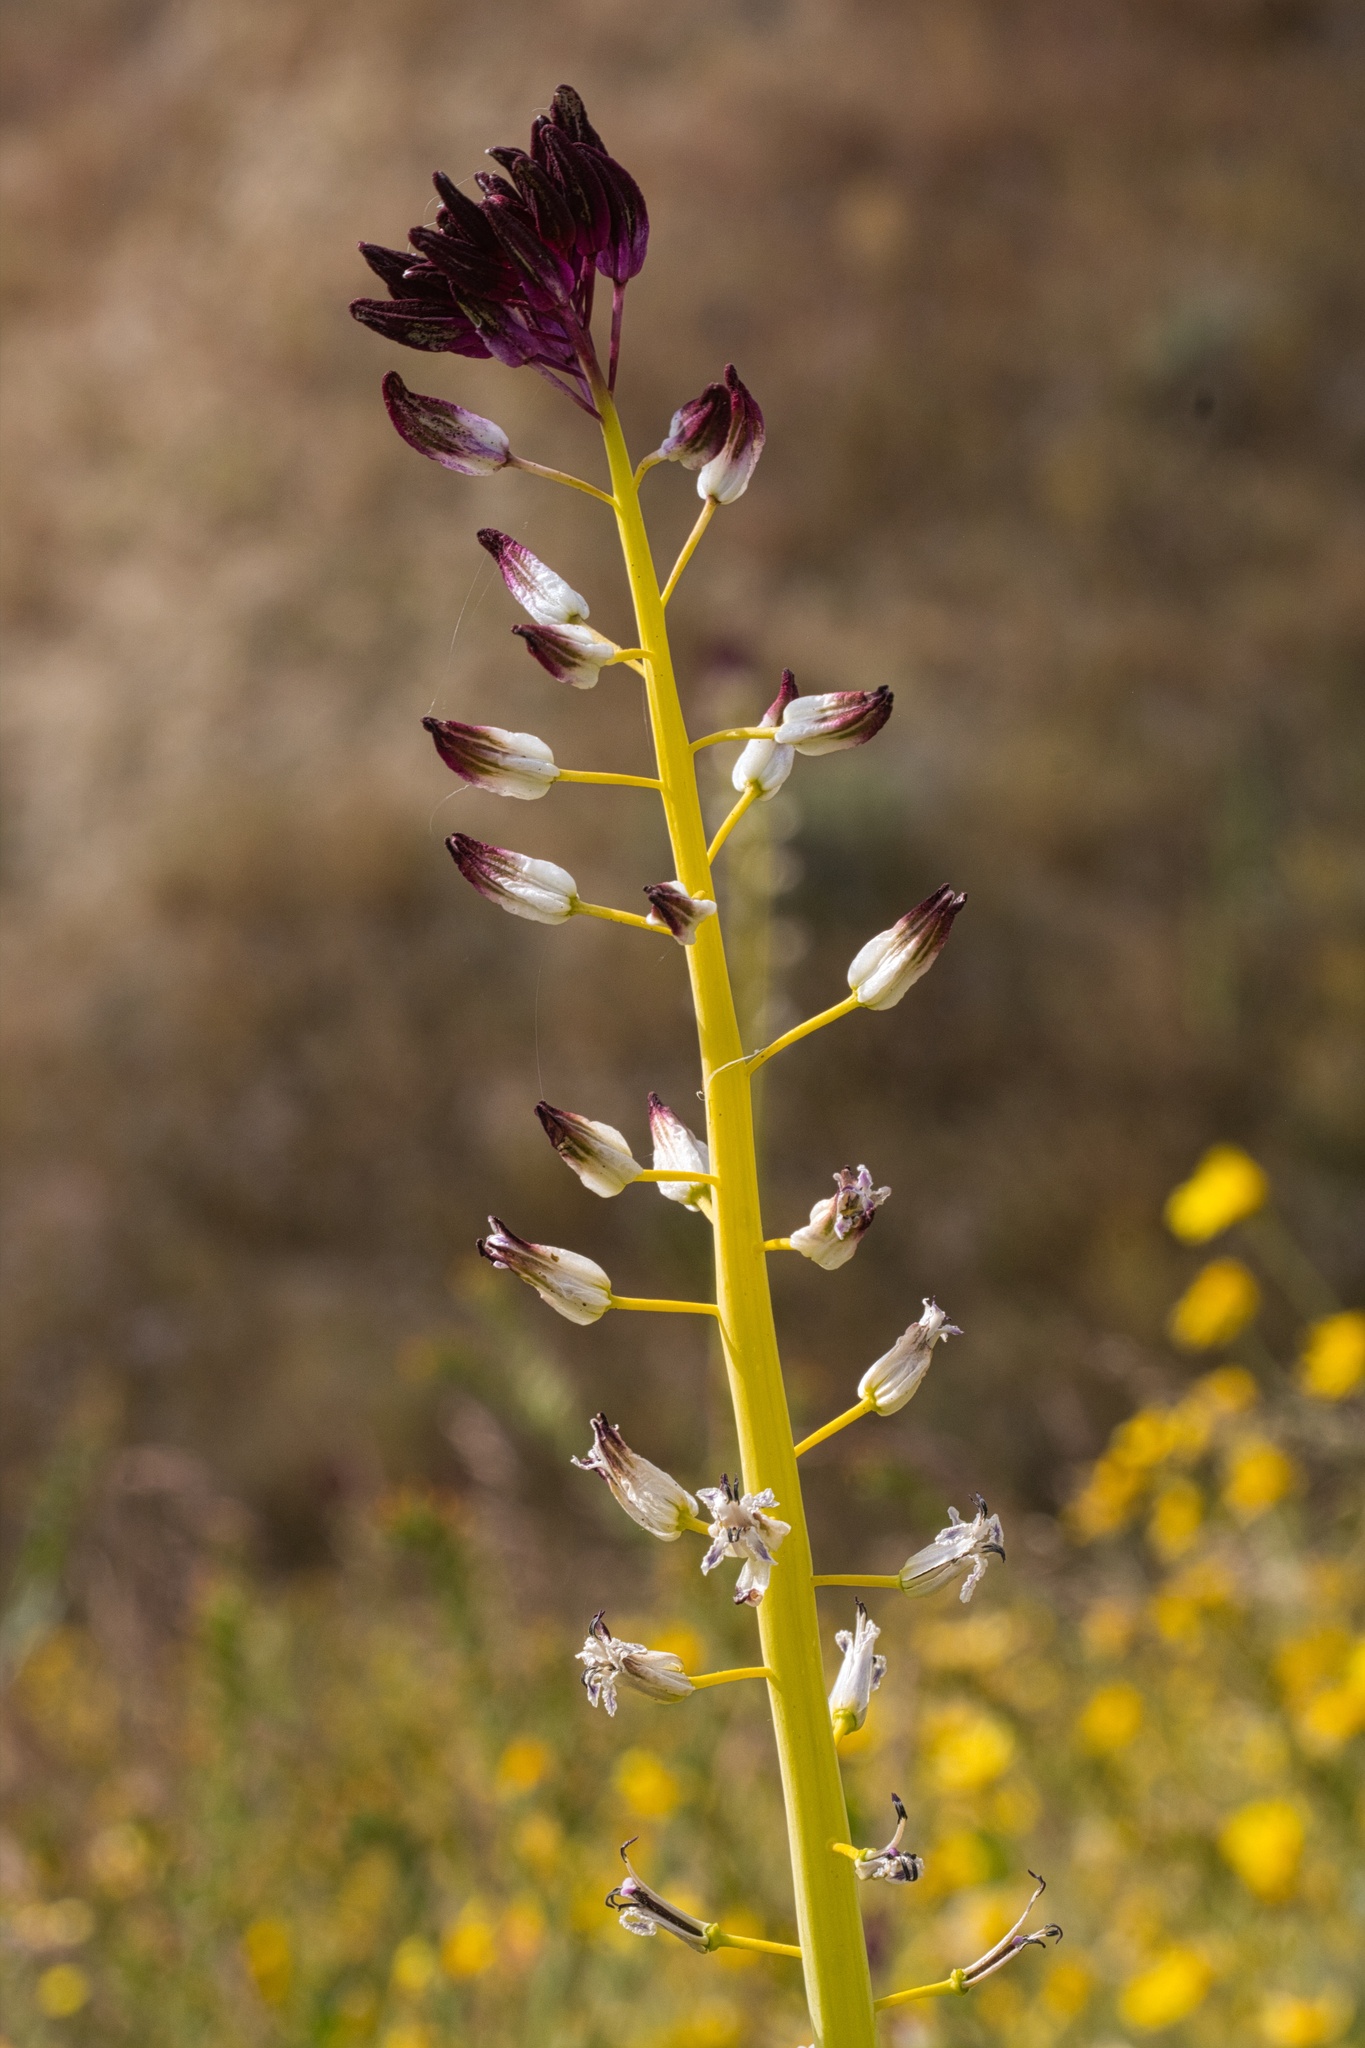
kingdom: Plantae
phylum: Tracheophyta
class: Magnoliopsida
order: Brassicales
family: Brassicaceae
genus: Streptanthus
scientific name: Streptanthus inflatus
